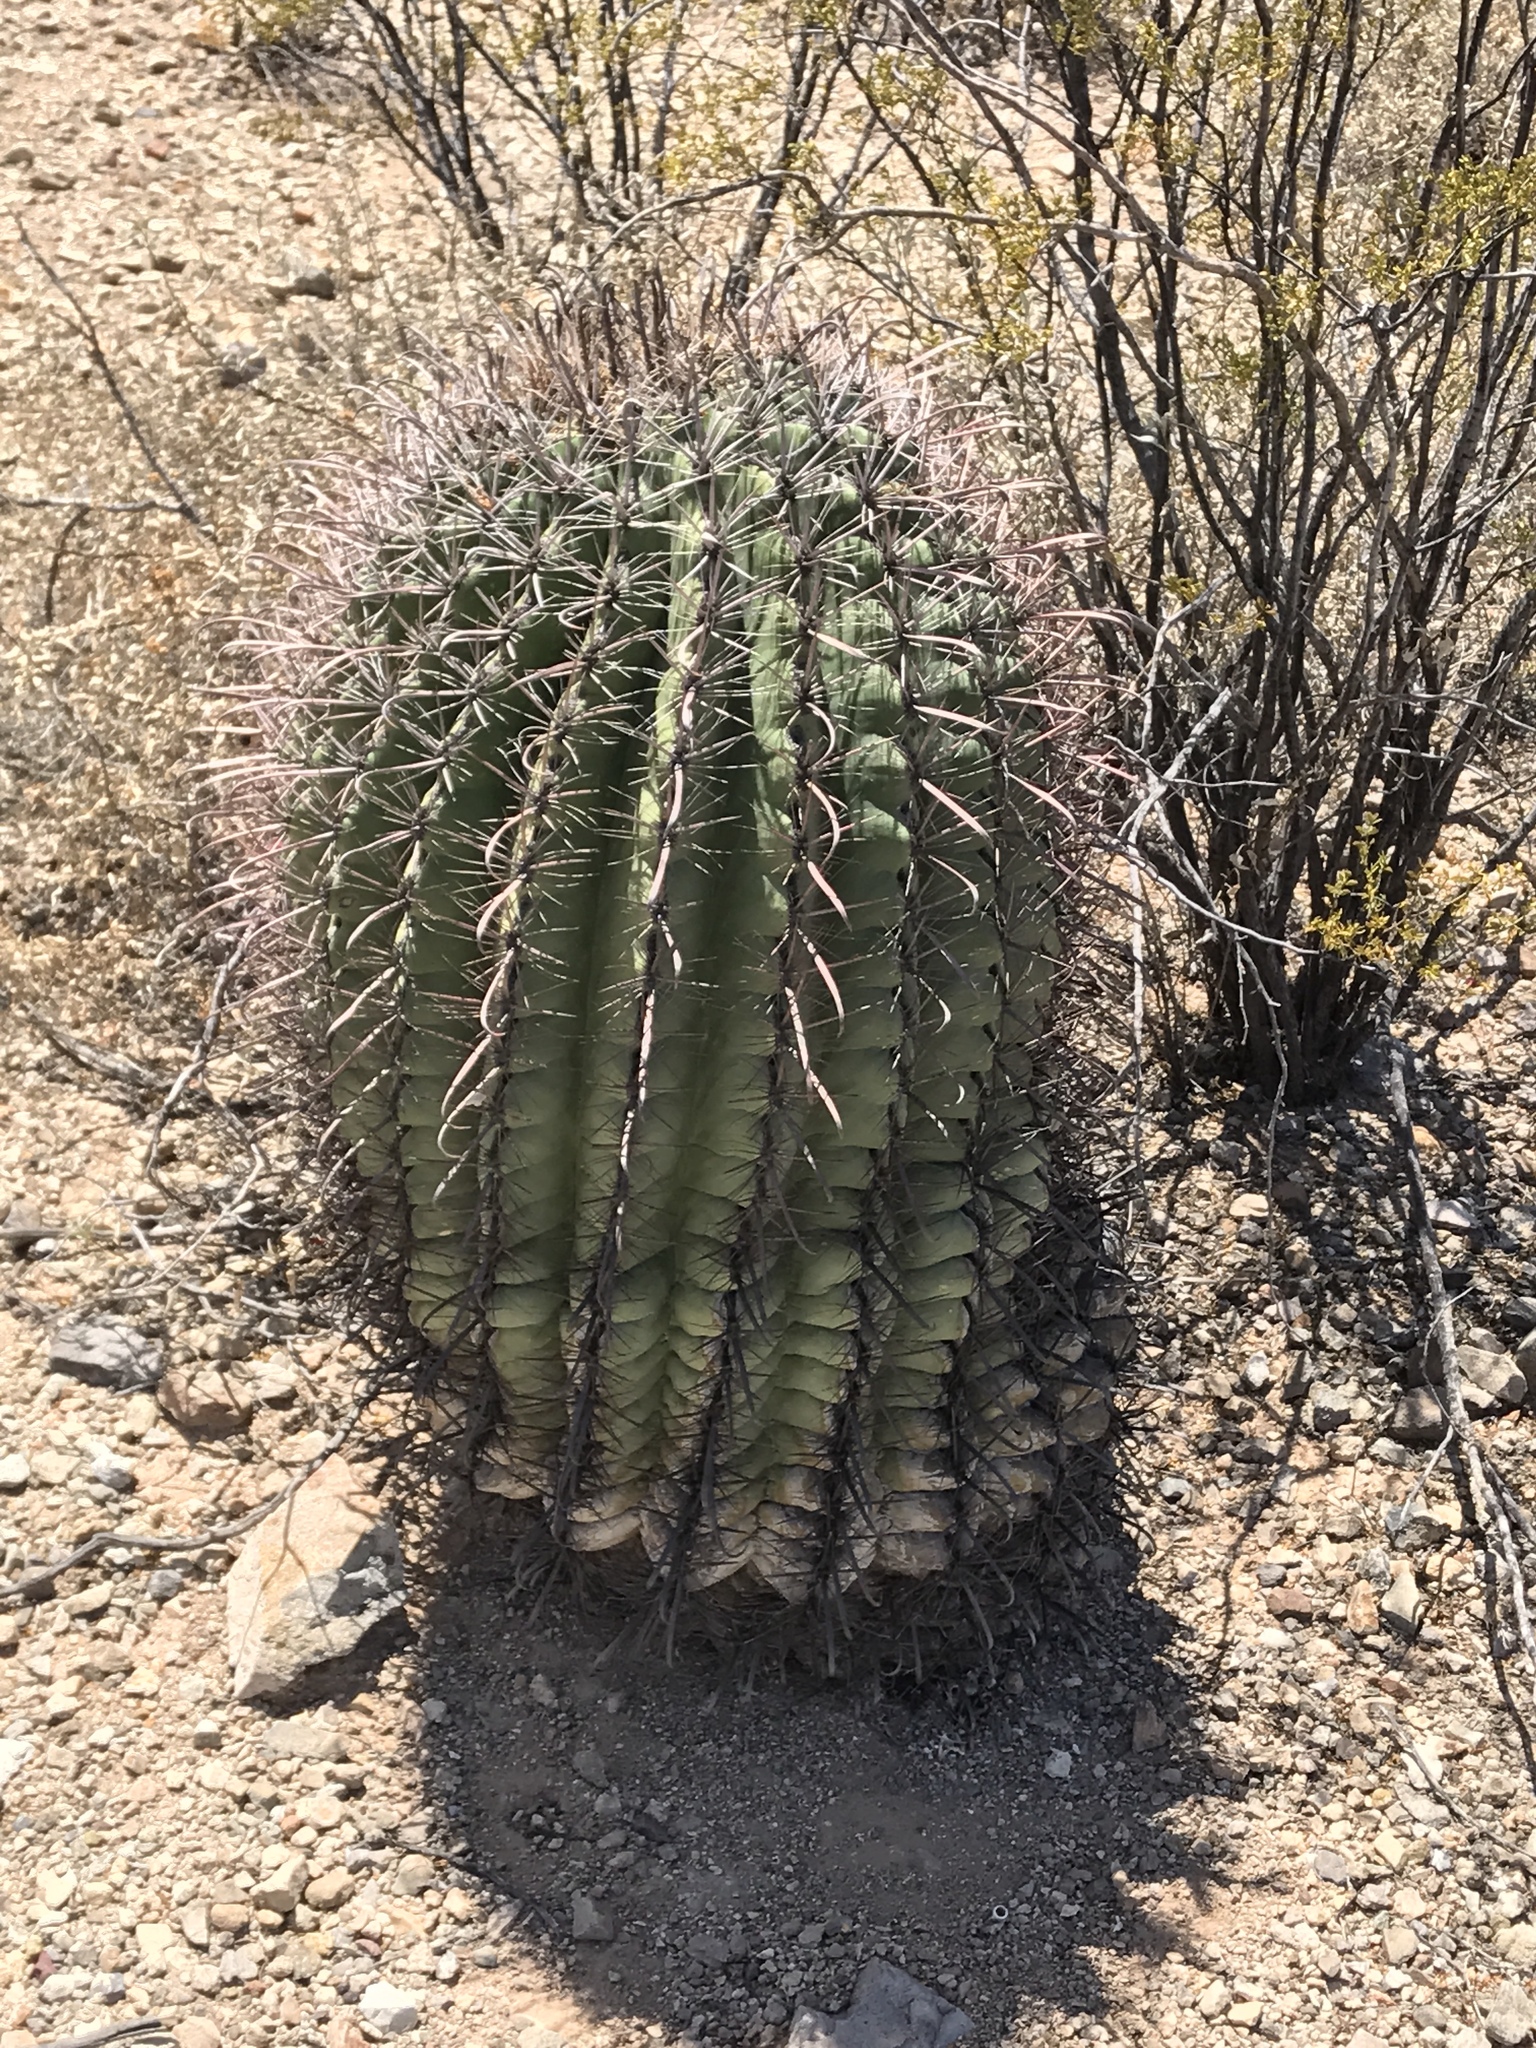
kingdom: Plantae
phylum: Tracheophyta
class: Magnoliopsida
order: Caryophyllales
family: Cactaceae
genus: Ferocactus
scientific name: Ferocactus wislizeni
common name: Candy barrel cactus
